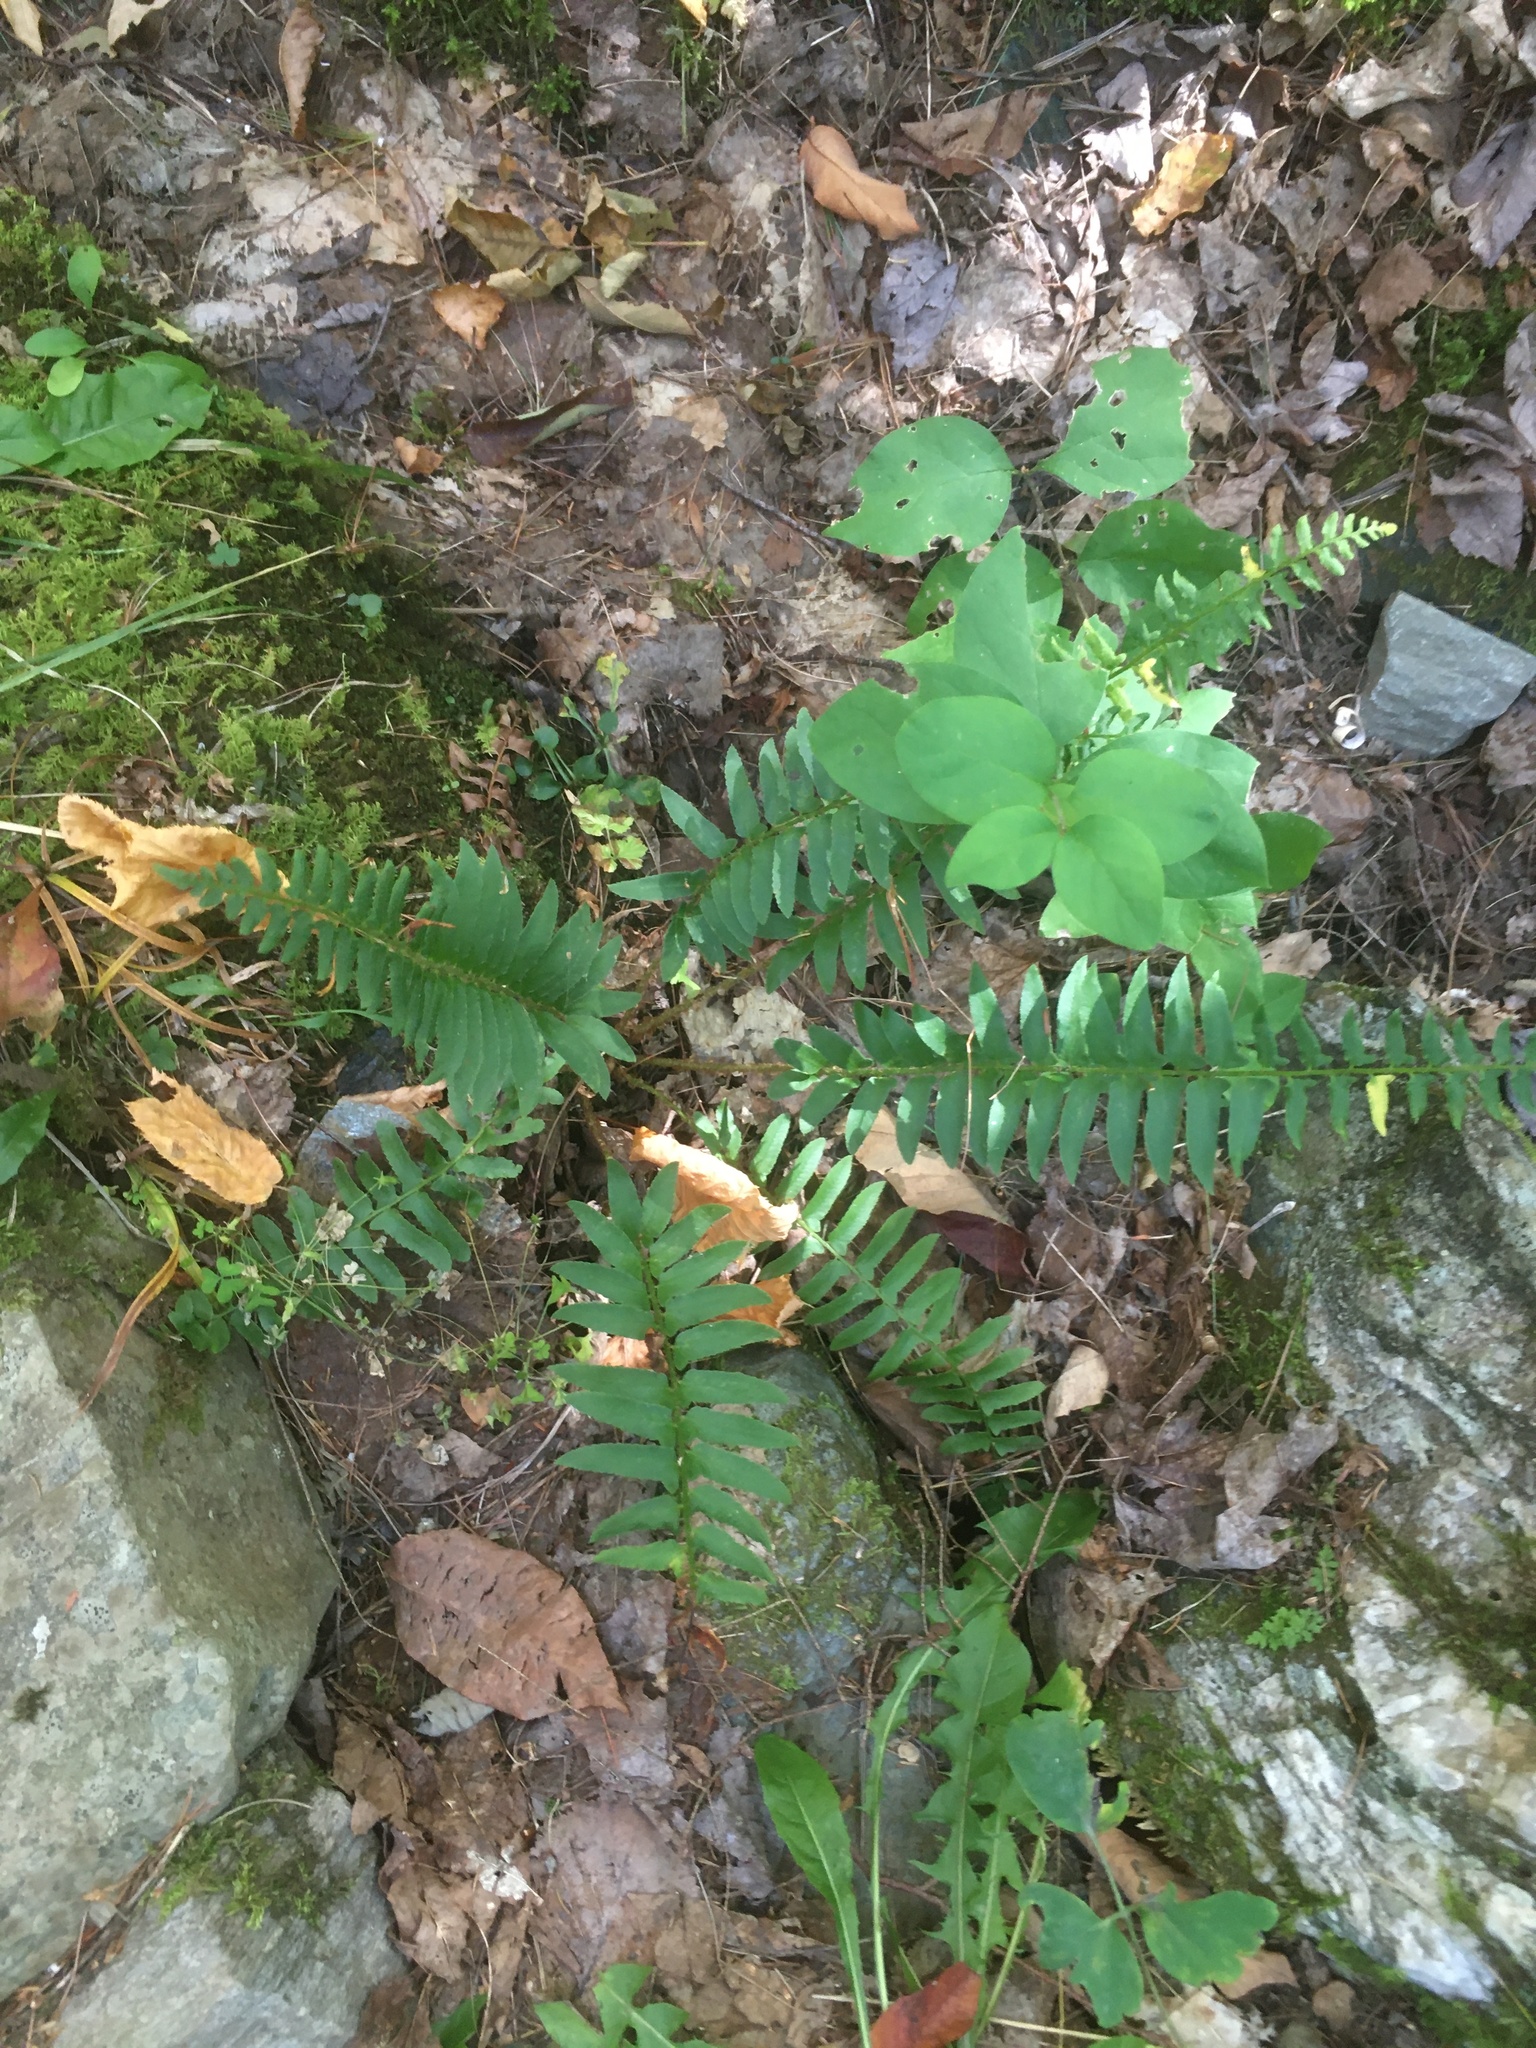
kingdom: Plantae
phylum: Tracheophyta
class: Polypodiopsida
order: Polypodiales
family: Dryopteridaceae
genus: Polystichum
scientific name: Polystichum acrostichoides
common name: Christmas fern
